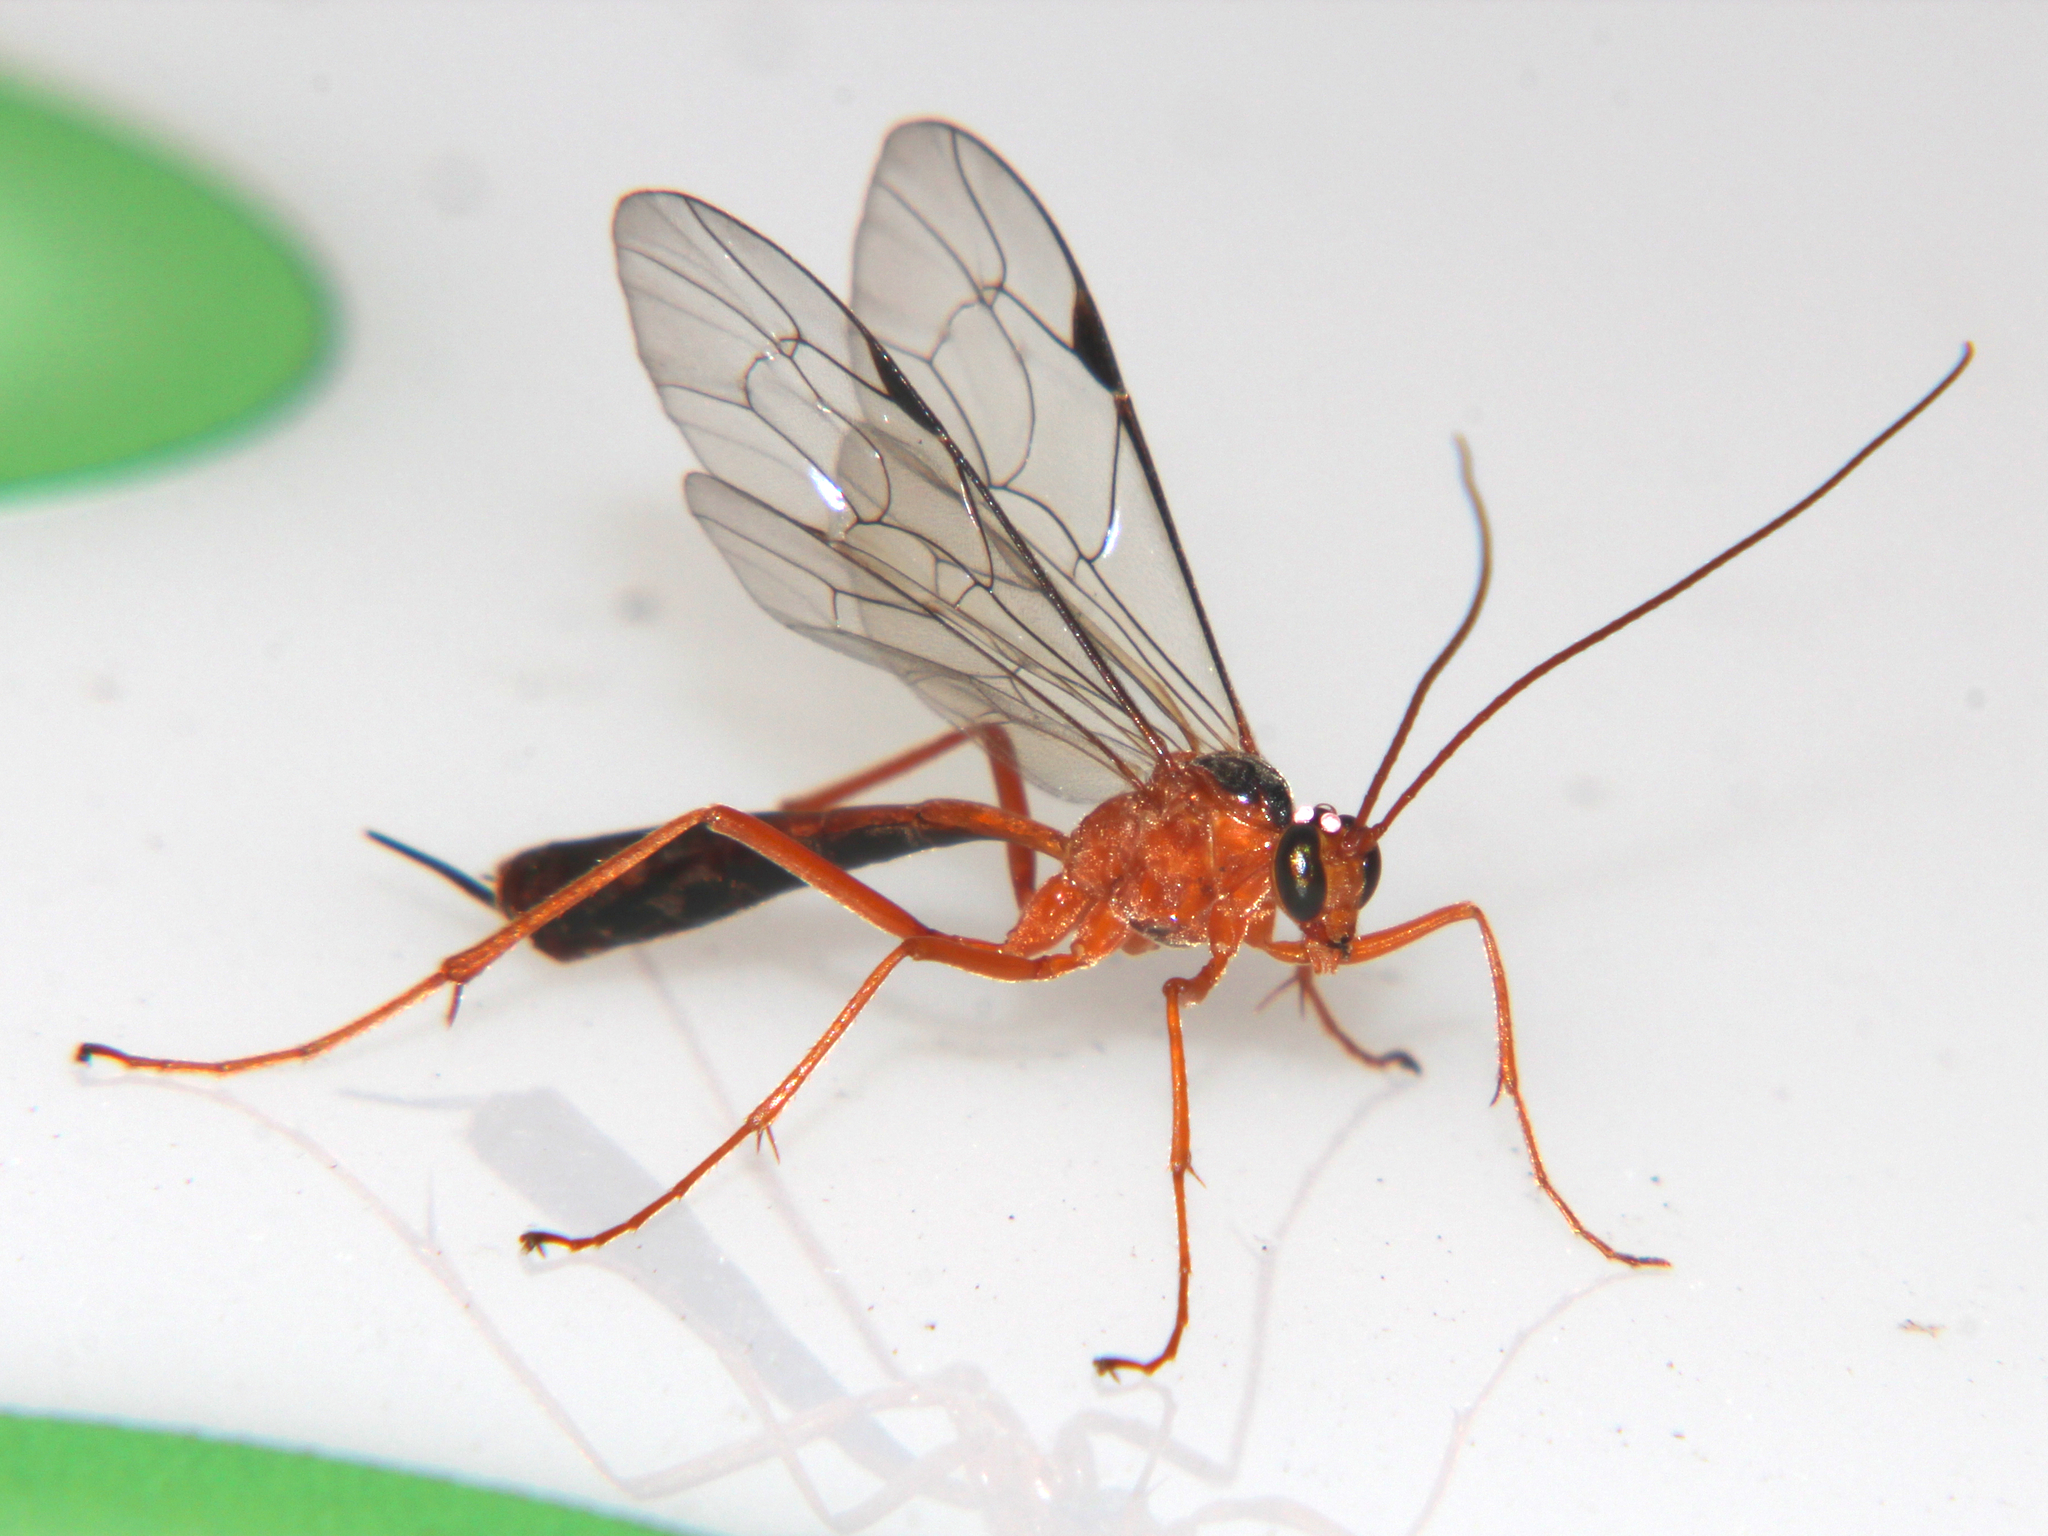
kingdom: Animalia
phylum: Arthropoda
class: Insecta
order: Hymenoptera
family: Ichneumonidae
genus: Netelia
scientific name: Netelia ephippiata
